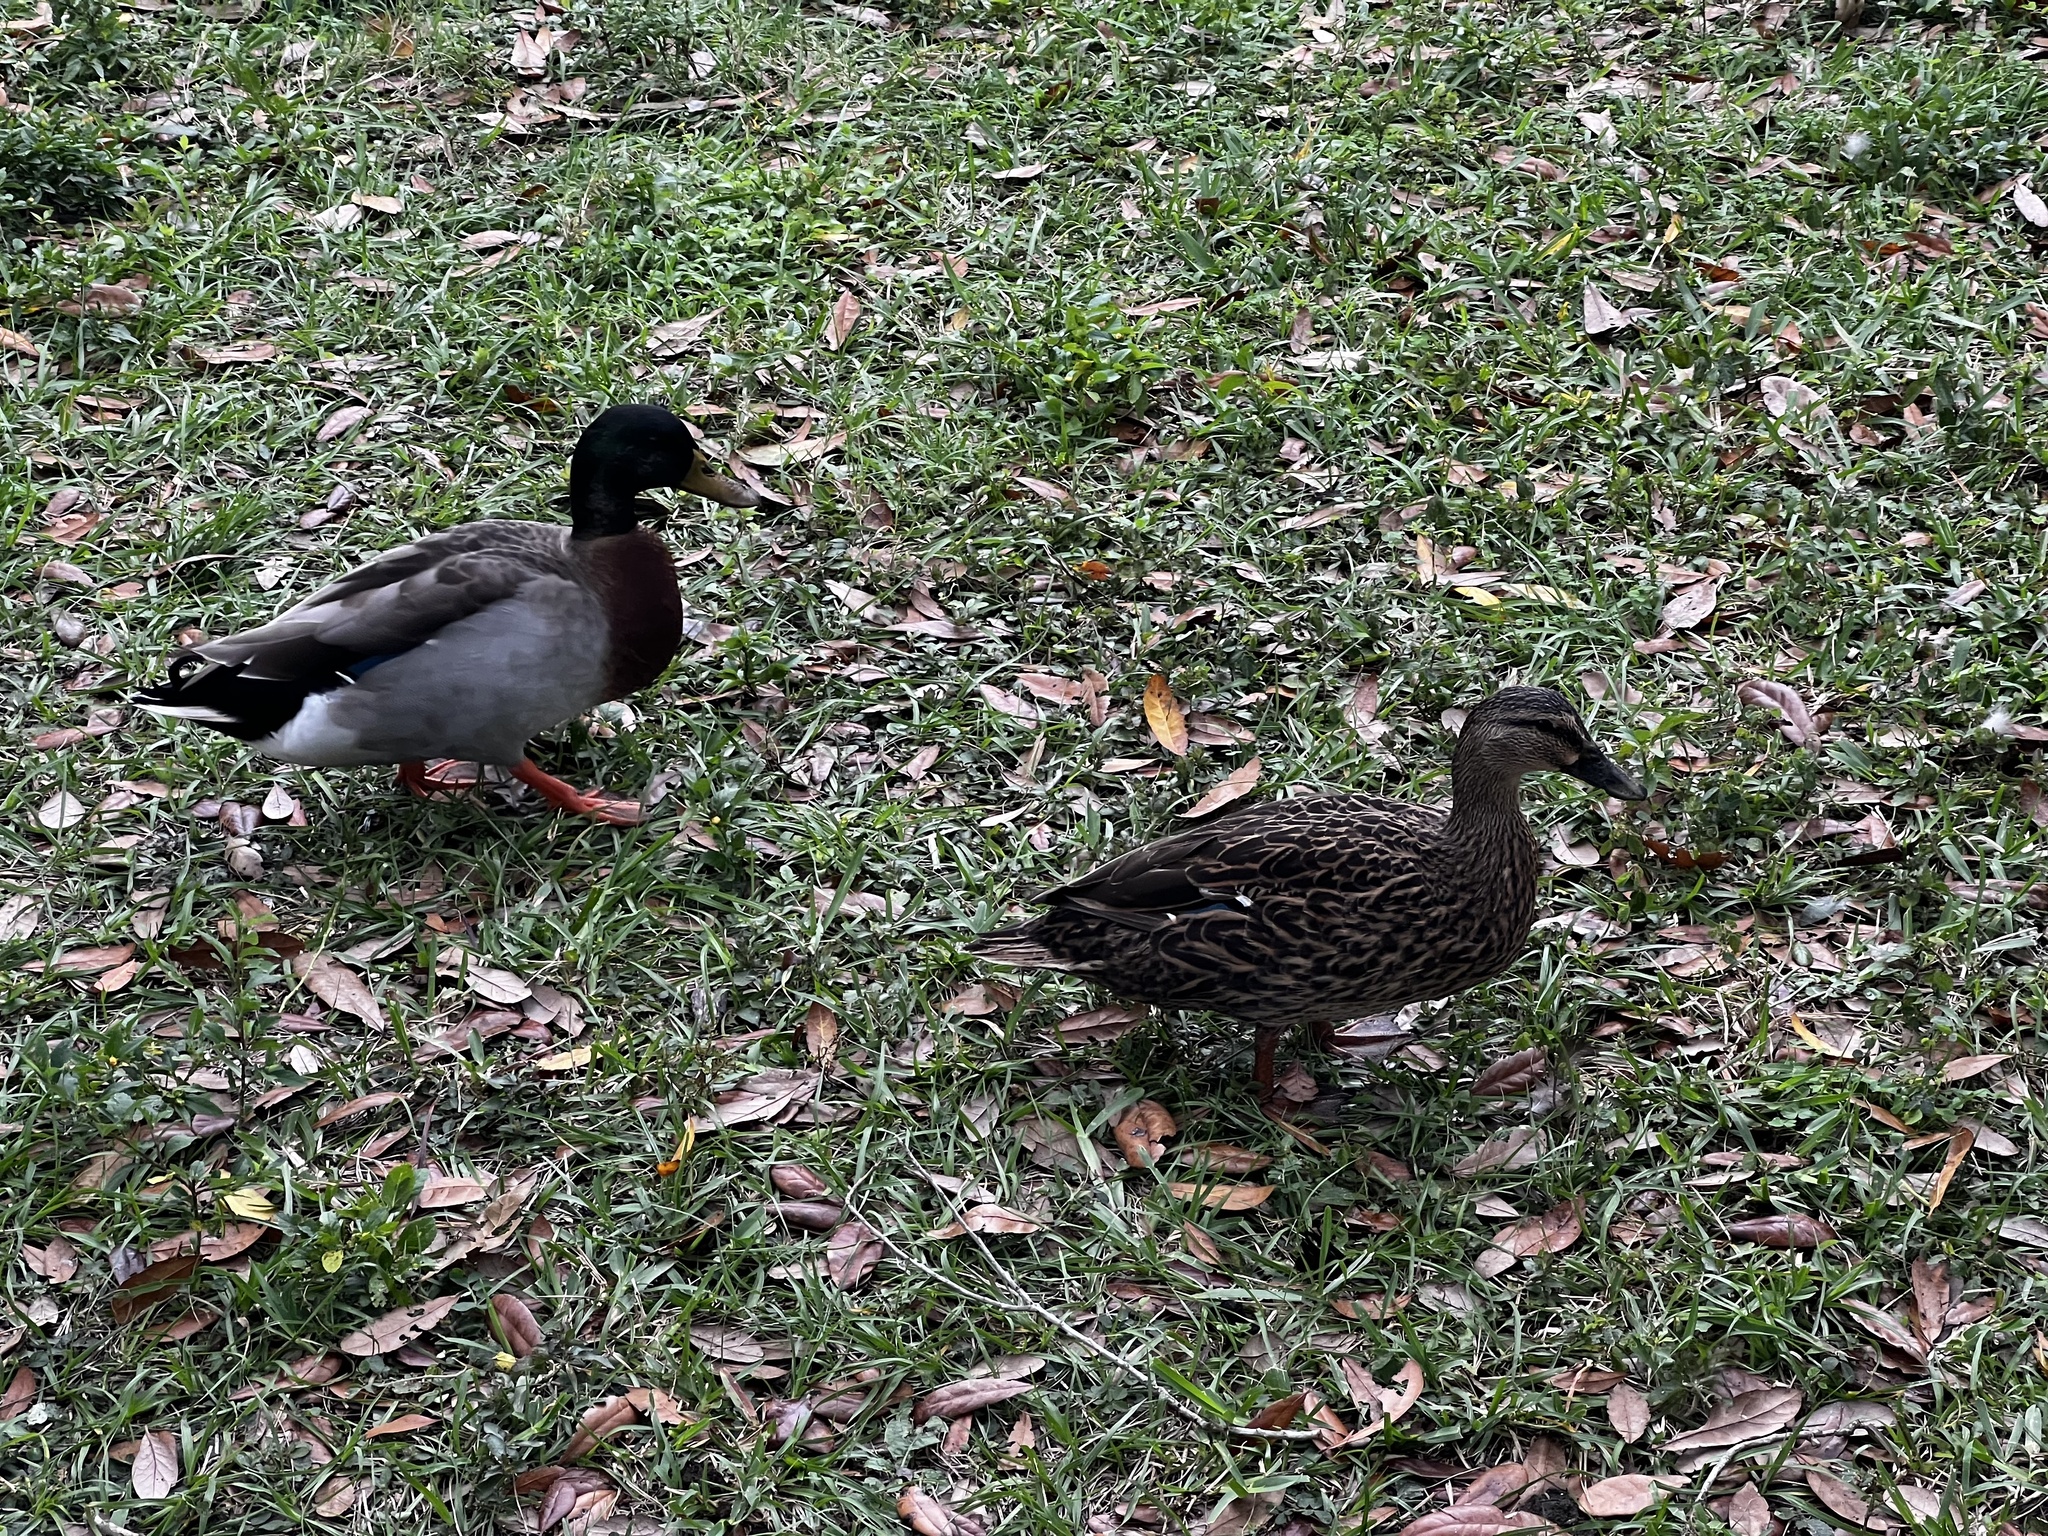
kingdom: Animalia
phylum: Chordata
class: Aves
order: Anseriformes
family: Anatidae
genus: Anas
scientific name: Anas platyrhynchos
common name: Mallard
